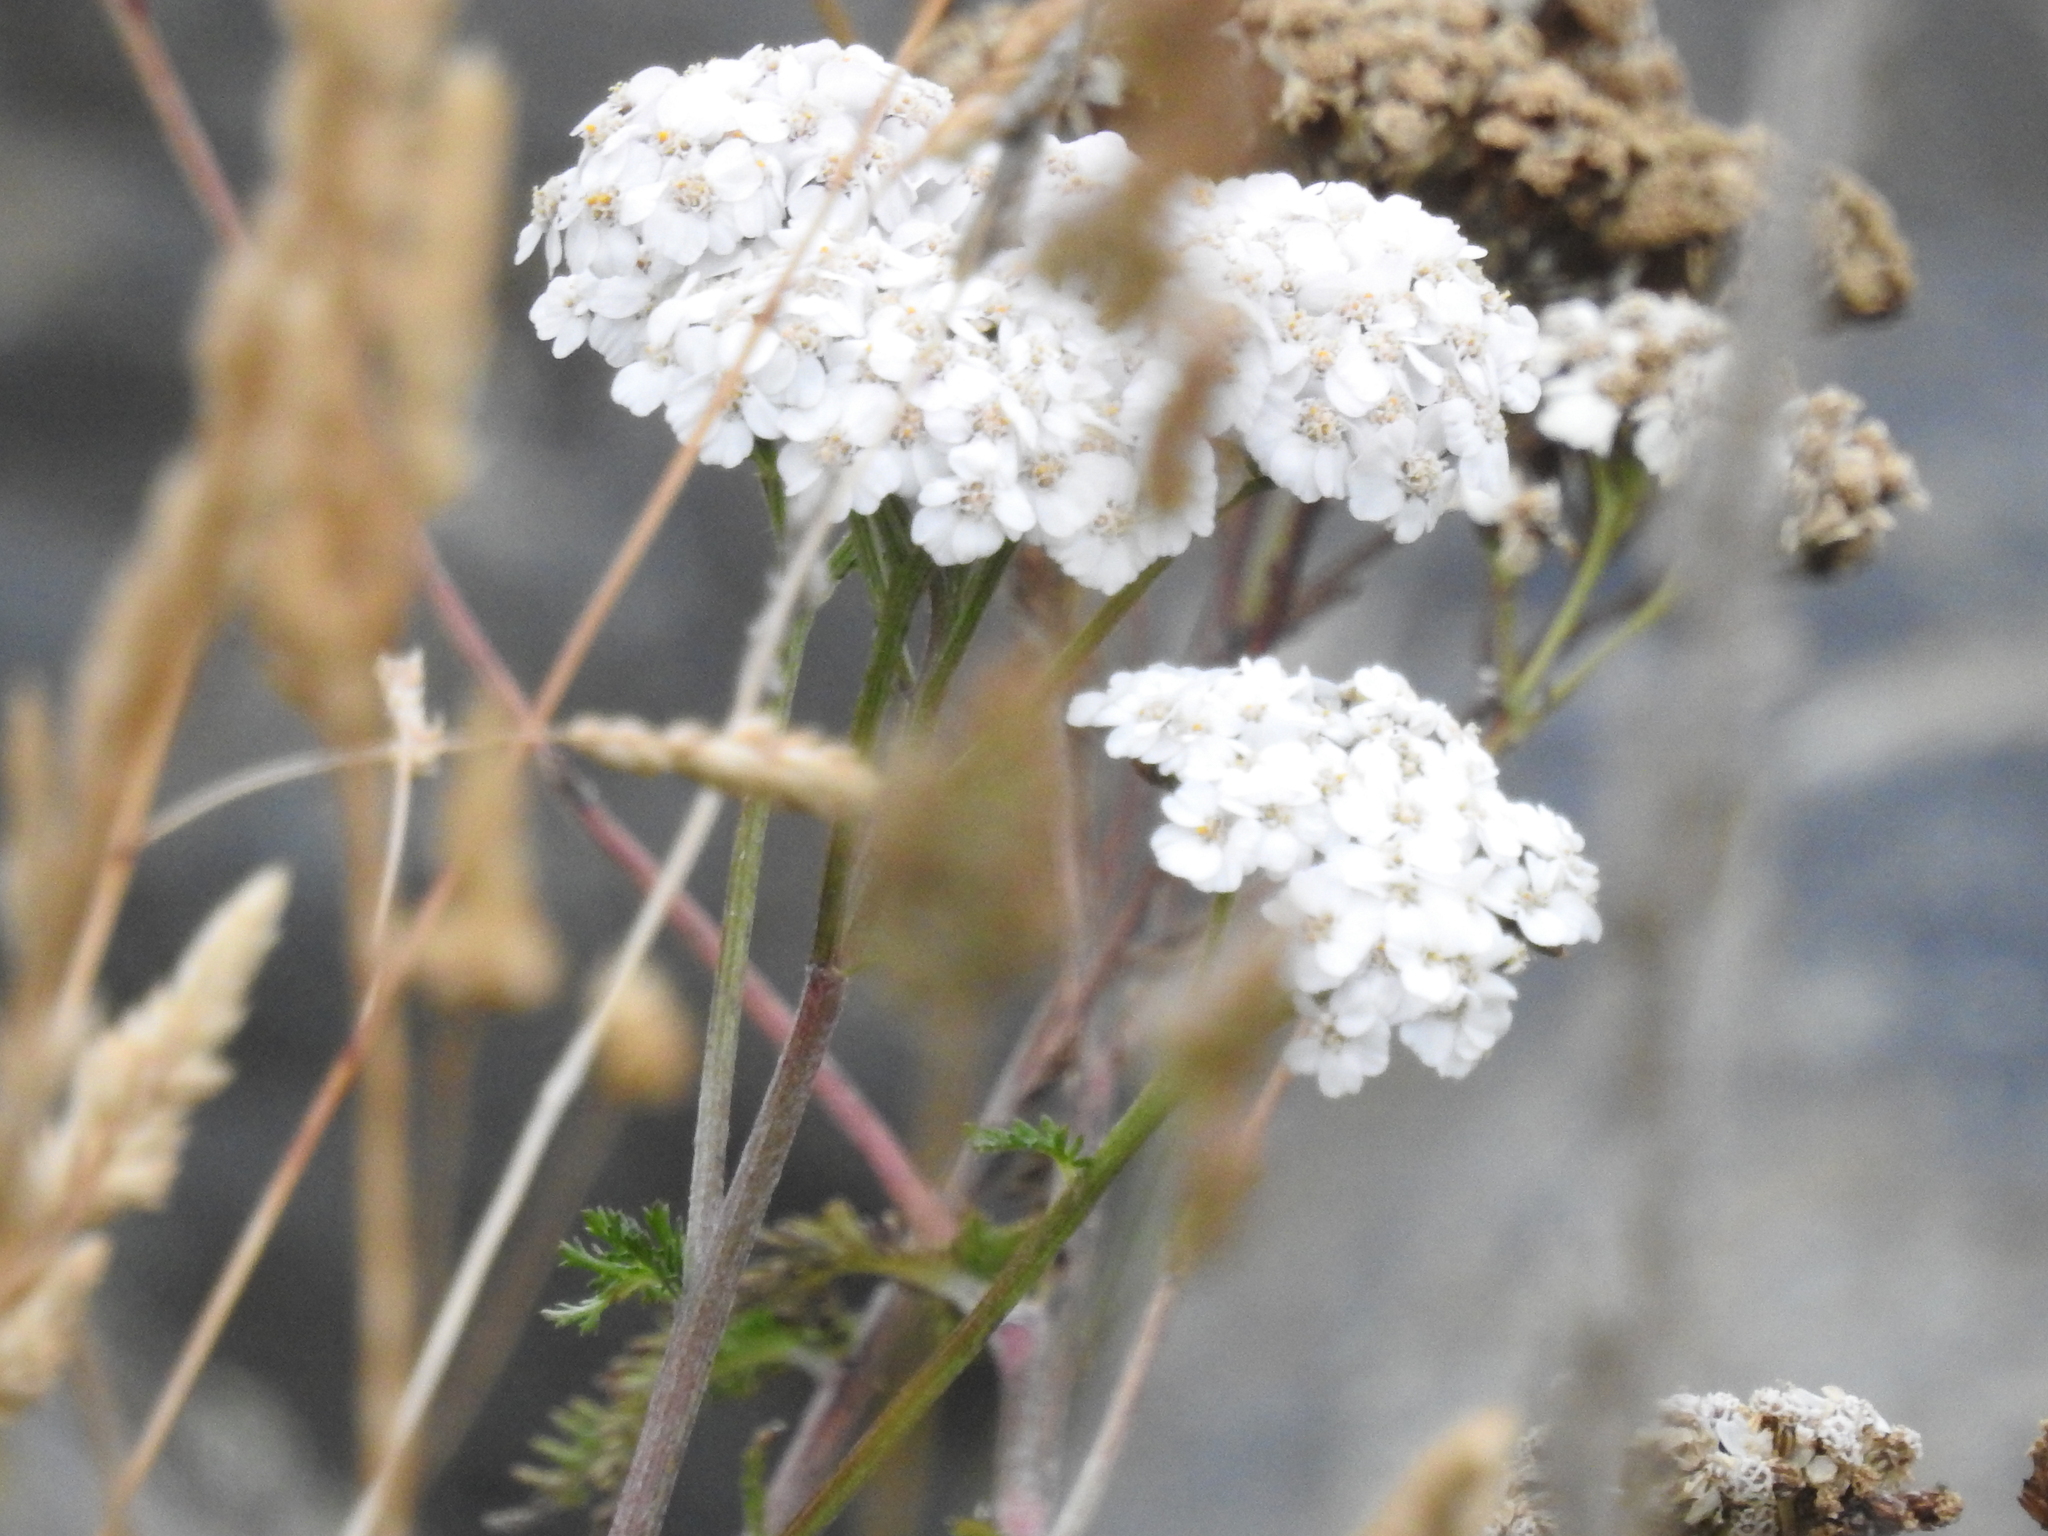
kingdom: Plantae
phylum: Tracheophyta
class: Magnoliopsida
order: Asterales
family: Asteraceae
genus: Achillea
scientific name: Achillea millefolium
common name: Yarrow
